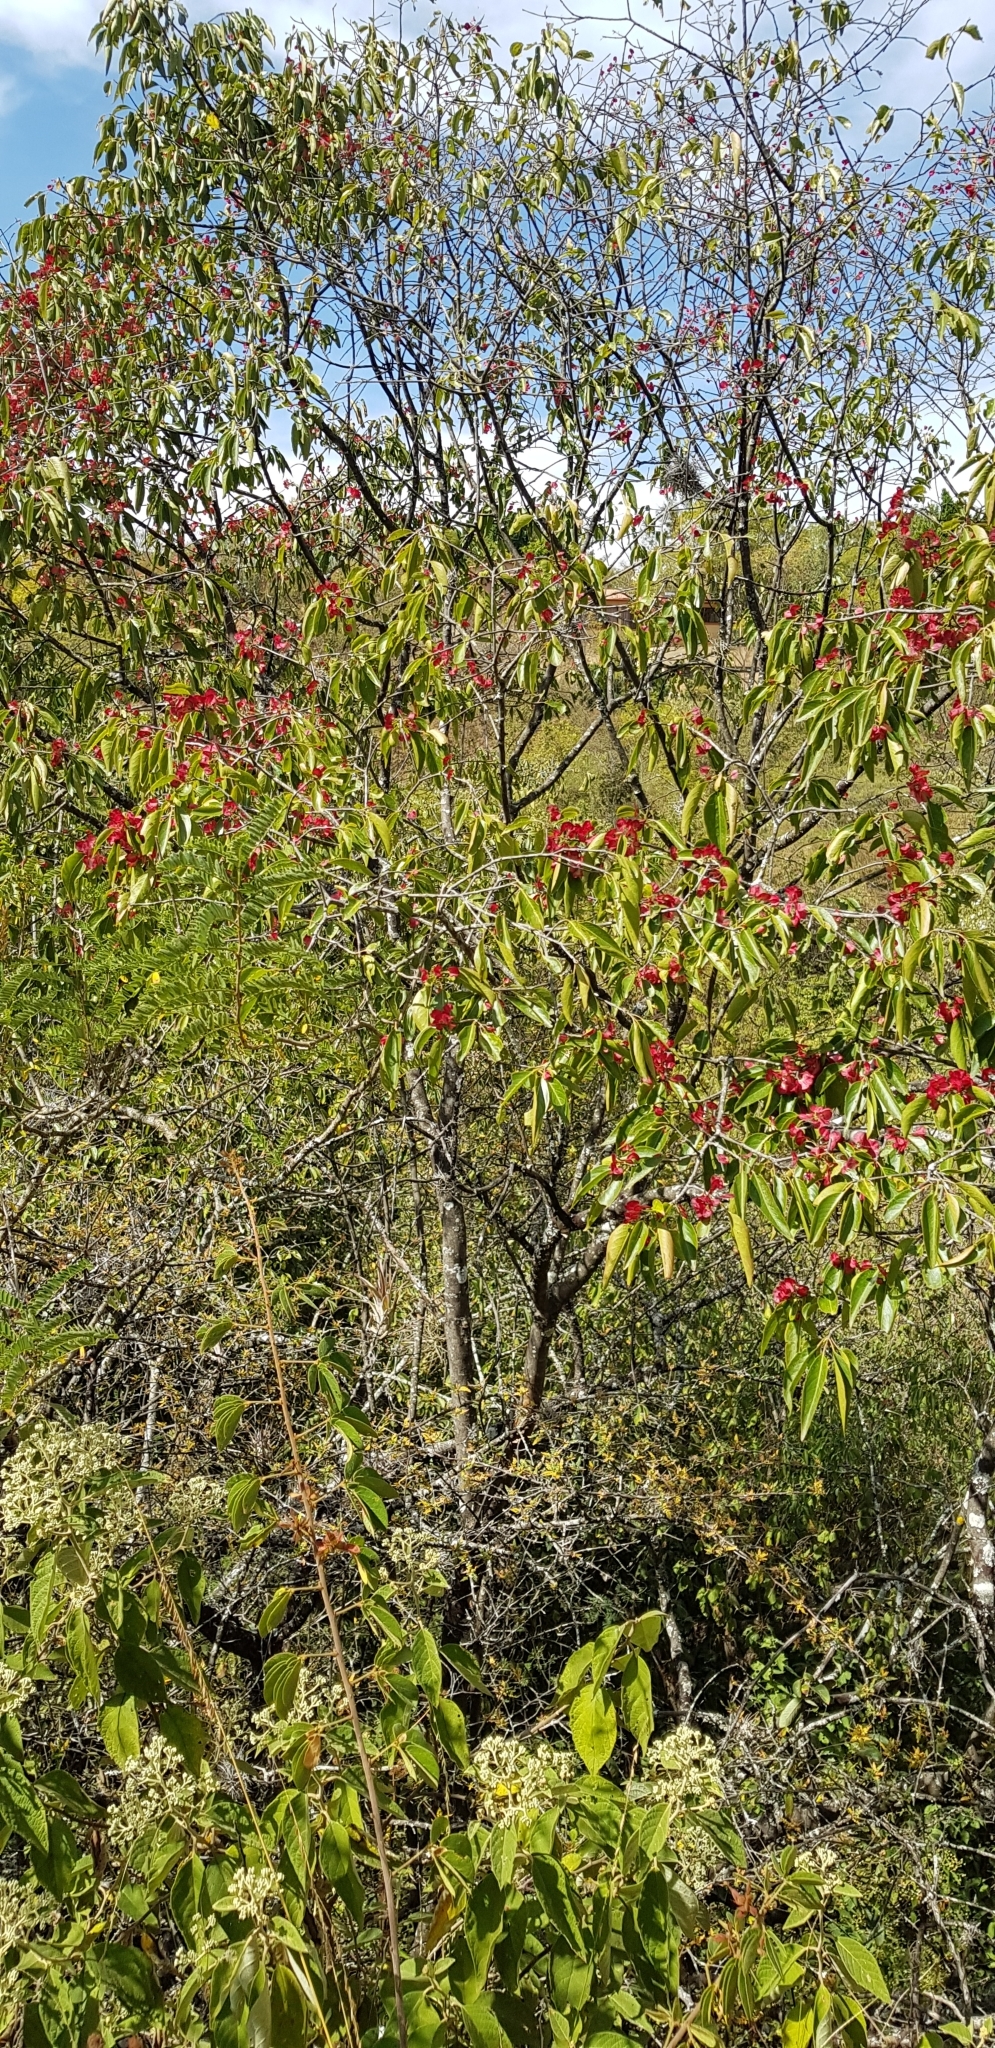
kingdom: Plantae
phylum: Tracheophyta
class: Magnoliopsida
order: Celastrales
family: Celastraceae
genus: Wimmeria
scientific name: Wimmeria persicifolia
